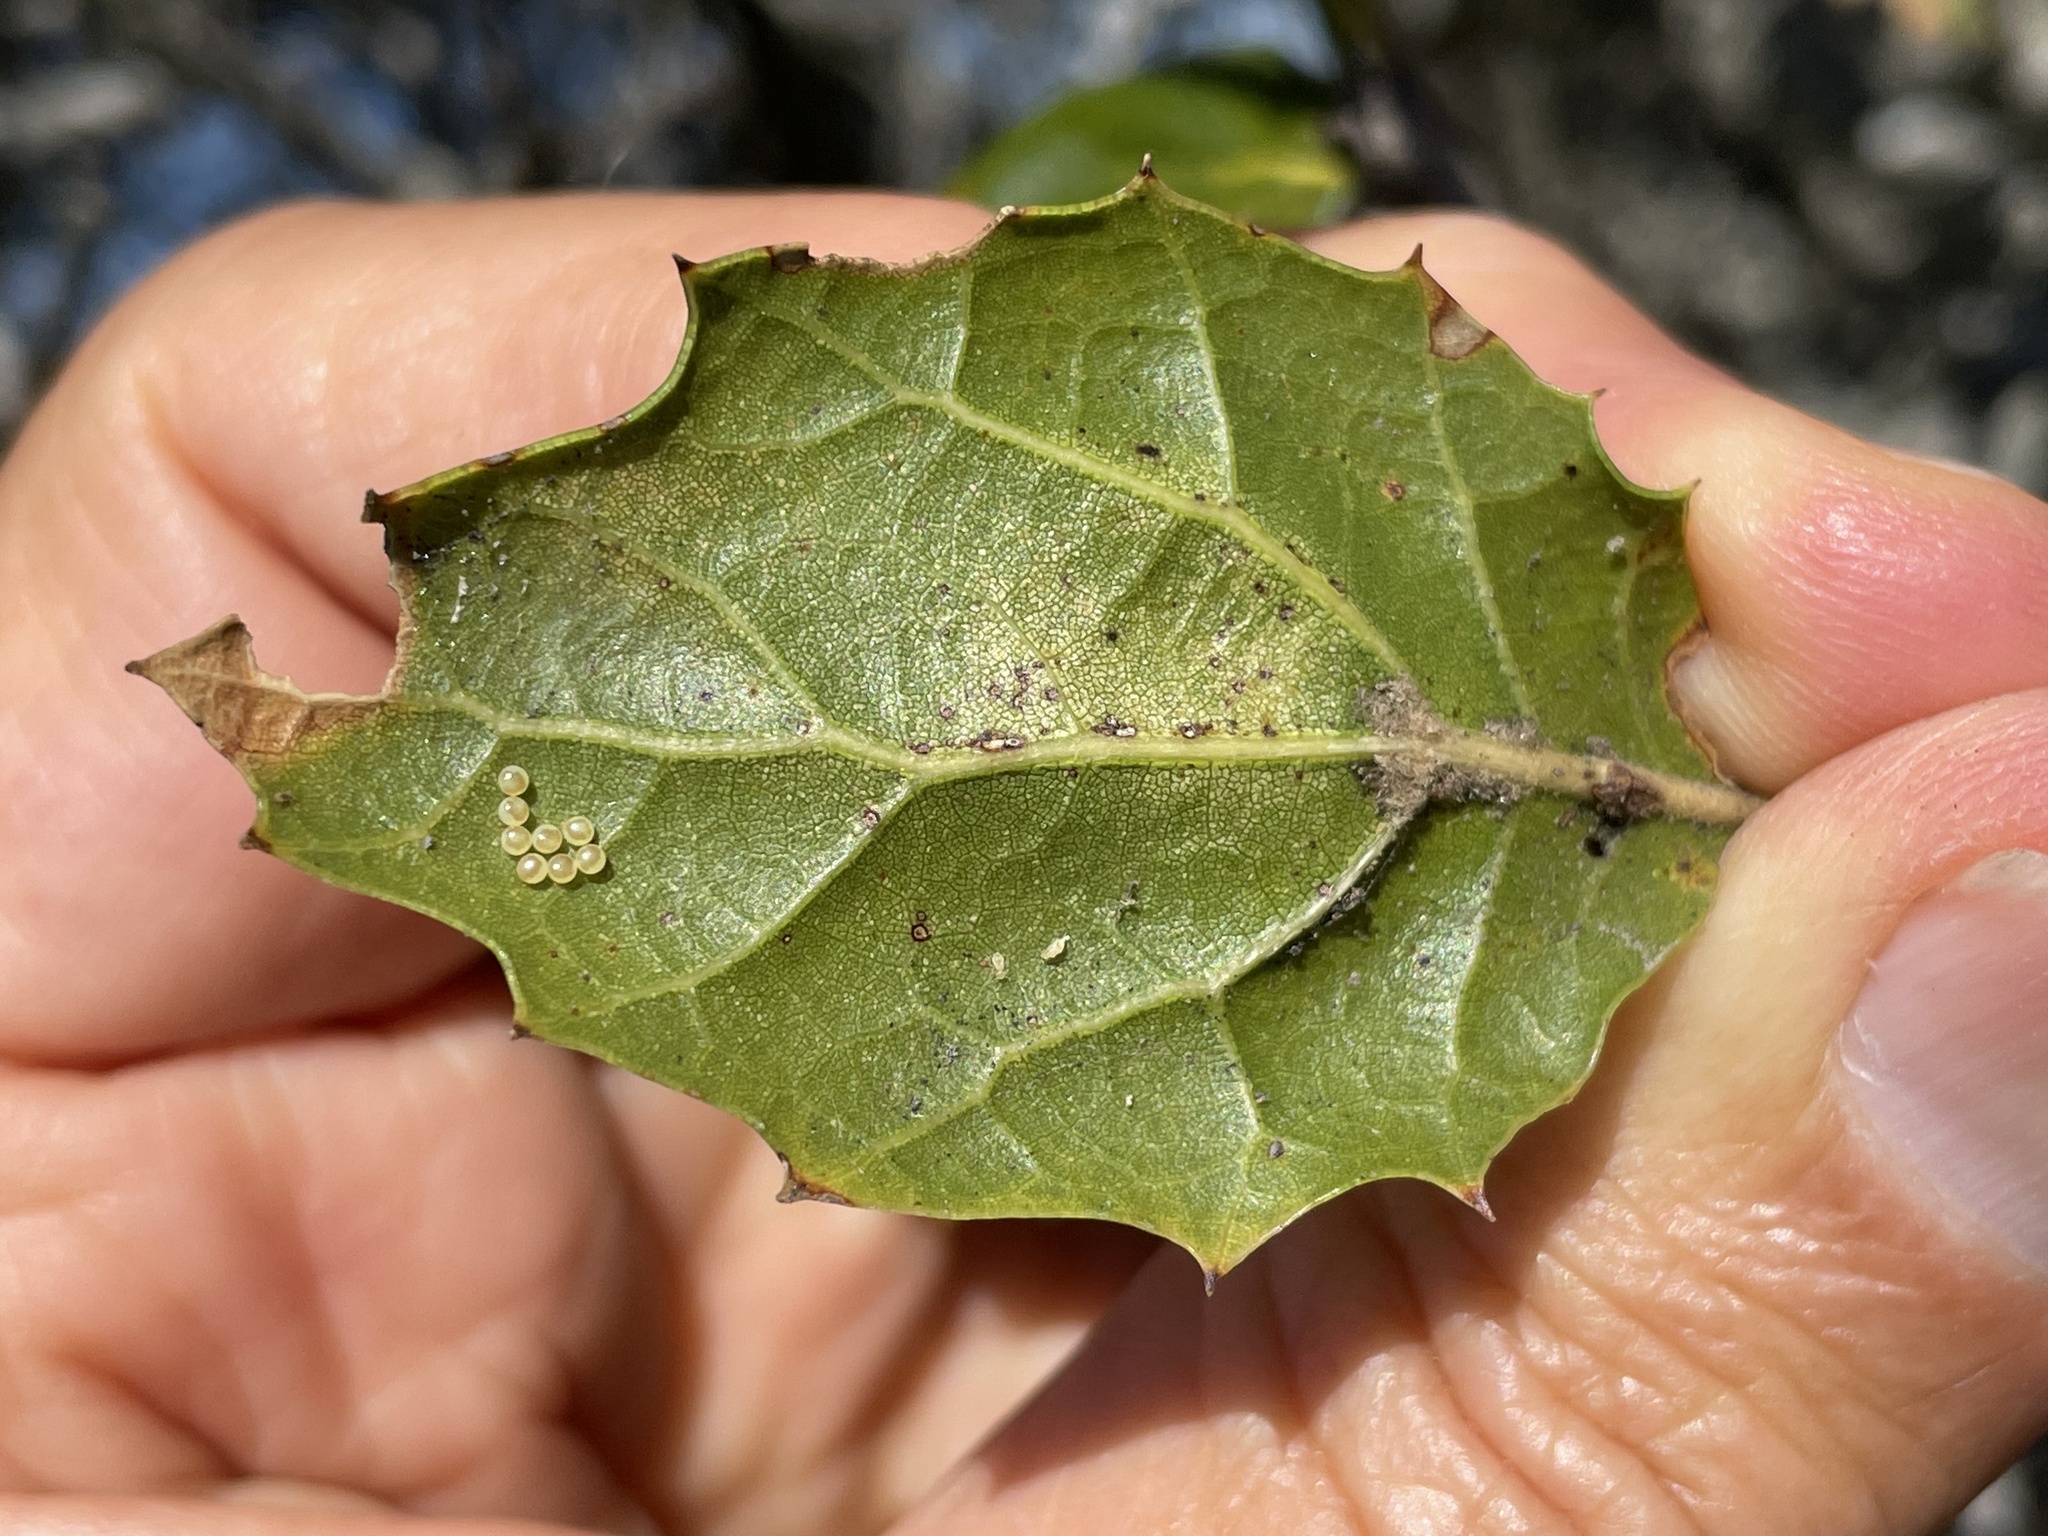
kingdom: Plantae
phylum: Tracheophyta
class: Magnoliopsida
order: Fagales
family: Fagaceae
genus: Quercus
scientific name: Quercus agrifolia
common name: California live oak
